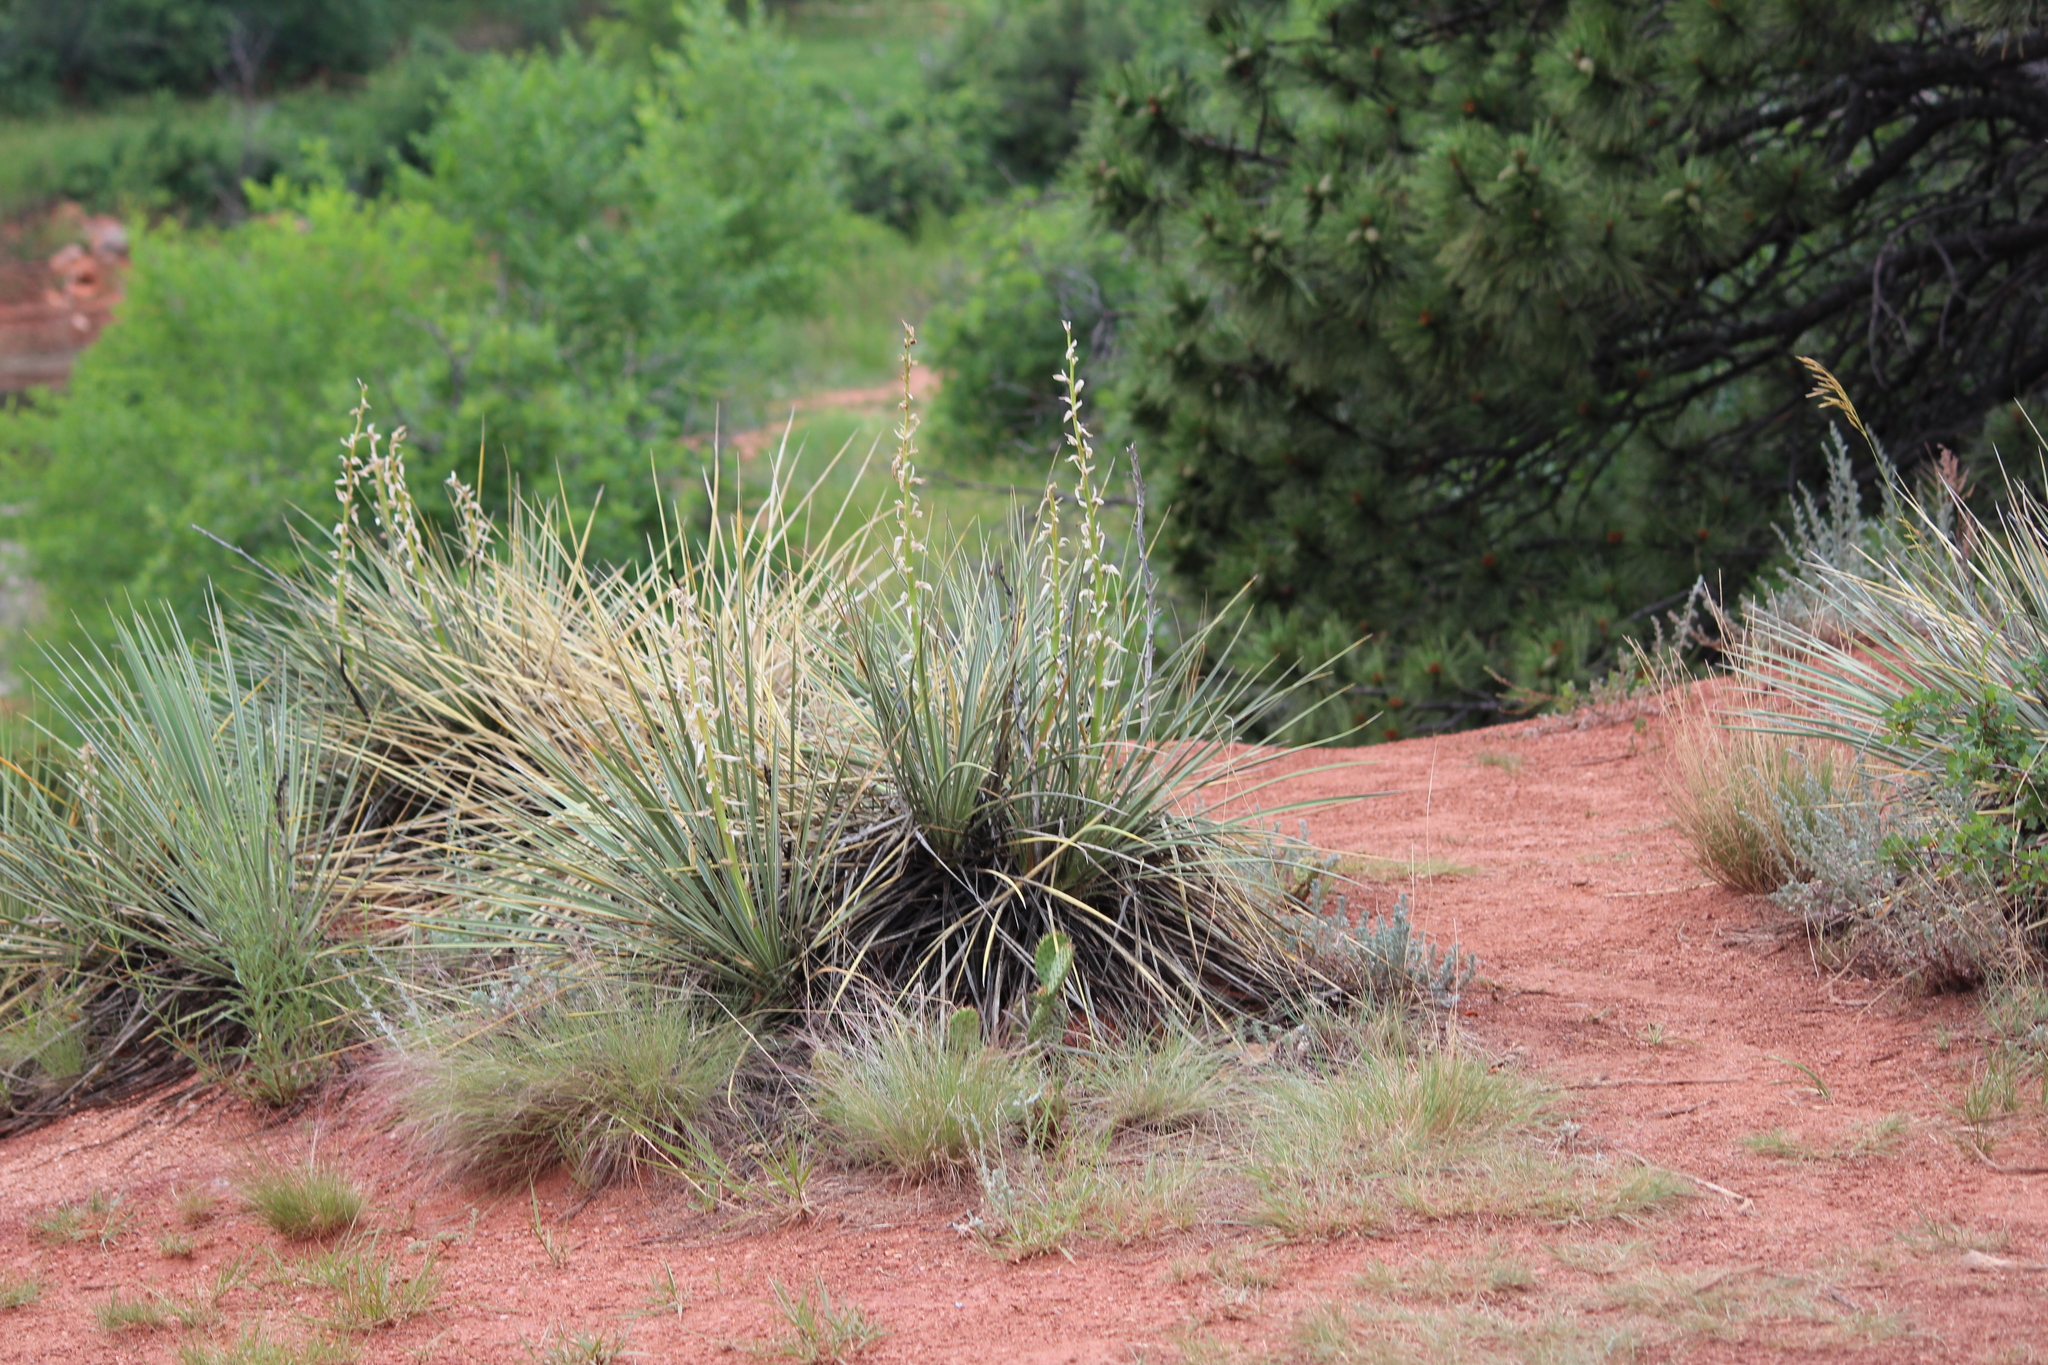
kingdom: Plantae
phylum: Tracheophyta
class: Liliopsida
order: Asparagales
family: Asparagaceae
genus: Yucca
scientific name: Yucca glauca
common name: Great plains yucca
